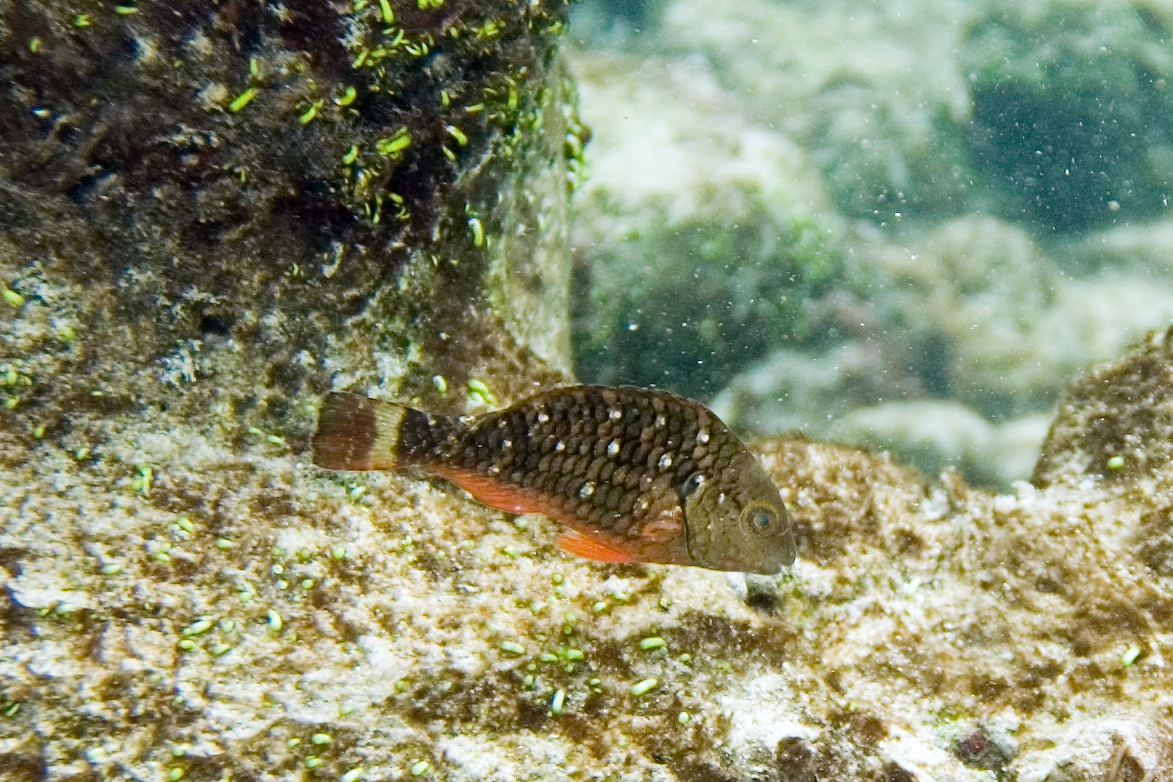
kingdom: Animalia
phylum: Chordata
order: Perciformes
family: Scaridae
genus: Sparisoma
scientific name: Sparisoma viride
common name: Stoplight parrotfish
